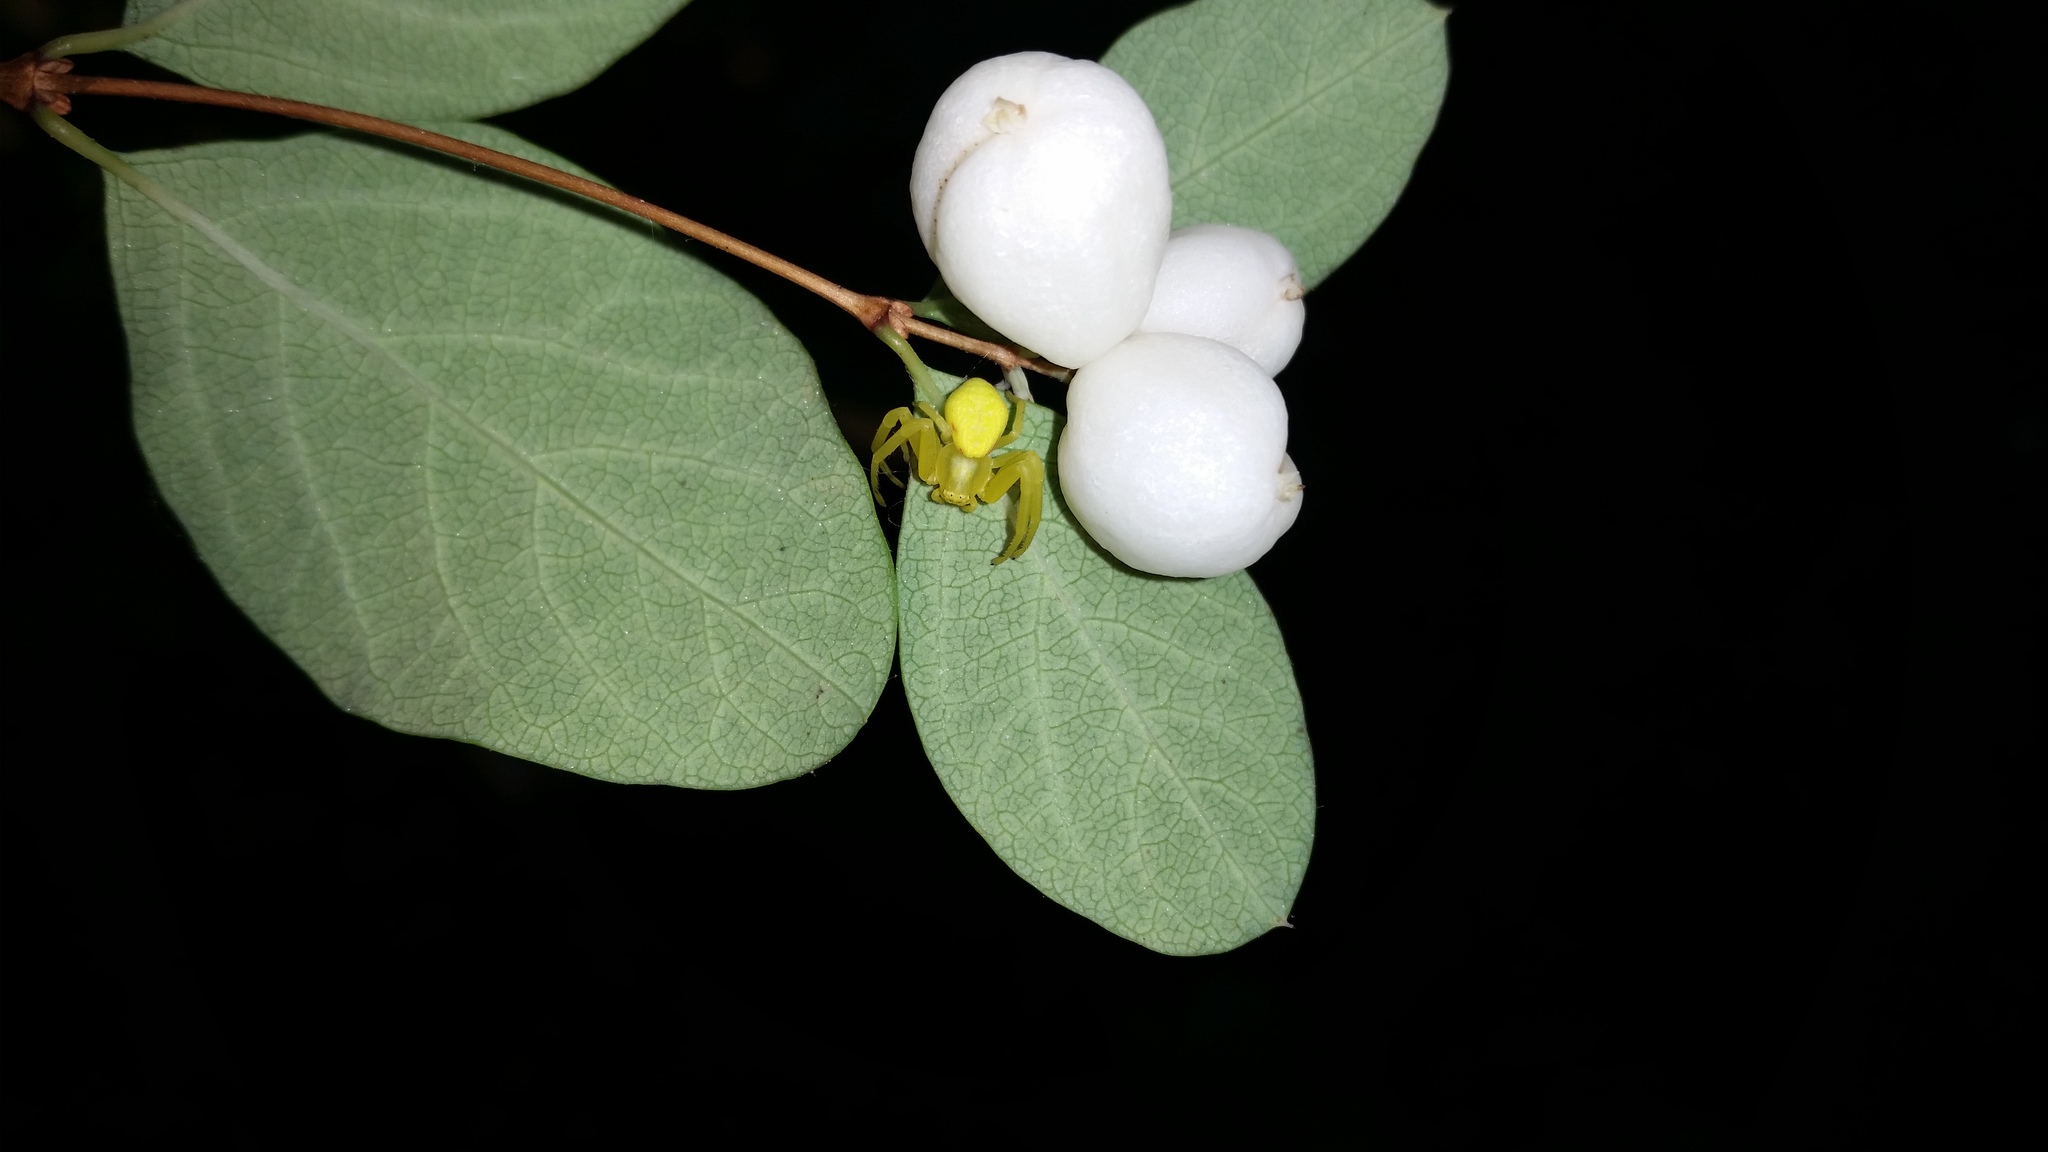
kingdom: Animalia
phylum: Arthropoda
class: Arachnida
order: Araneae
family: Thomisidae
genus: Misumena
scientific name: Misumena vatia
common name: Goldenrod crab spider
